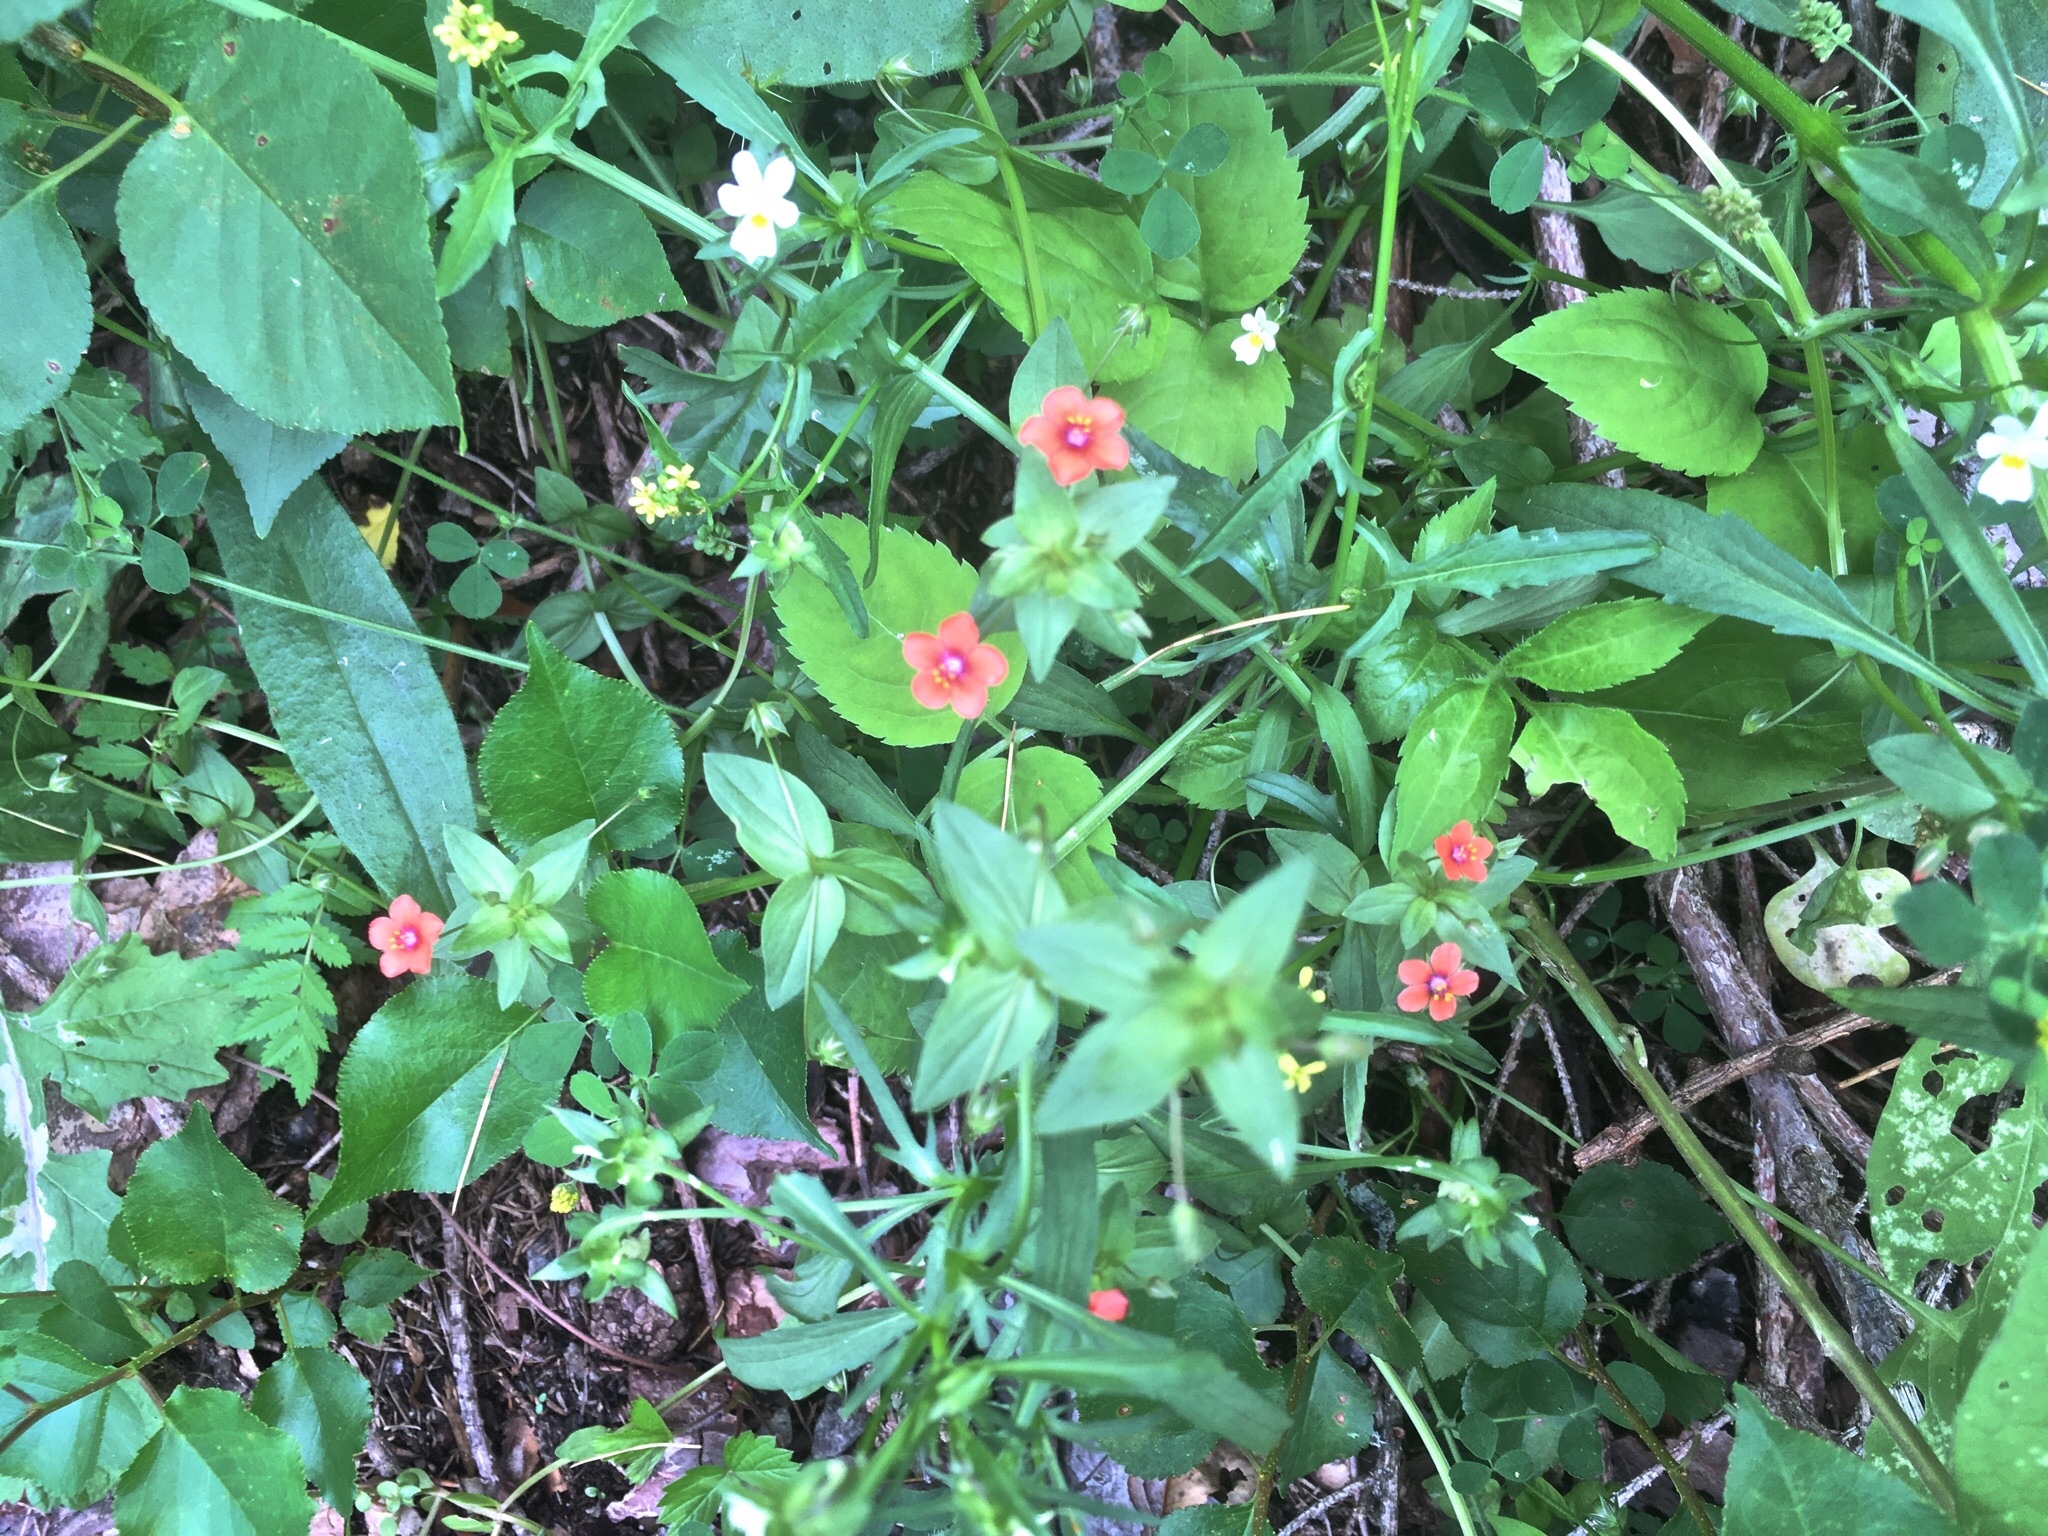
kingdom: Plantae
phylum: Tracheophyta
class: Magnoliopsida
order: Ericales
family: Primulaceae
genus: Lysimachia
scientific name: Lysimachia arvensis
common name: Scarlet pimpernel
